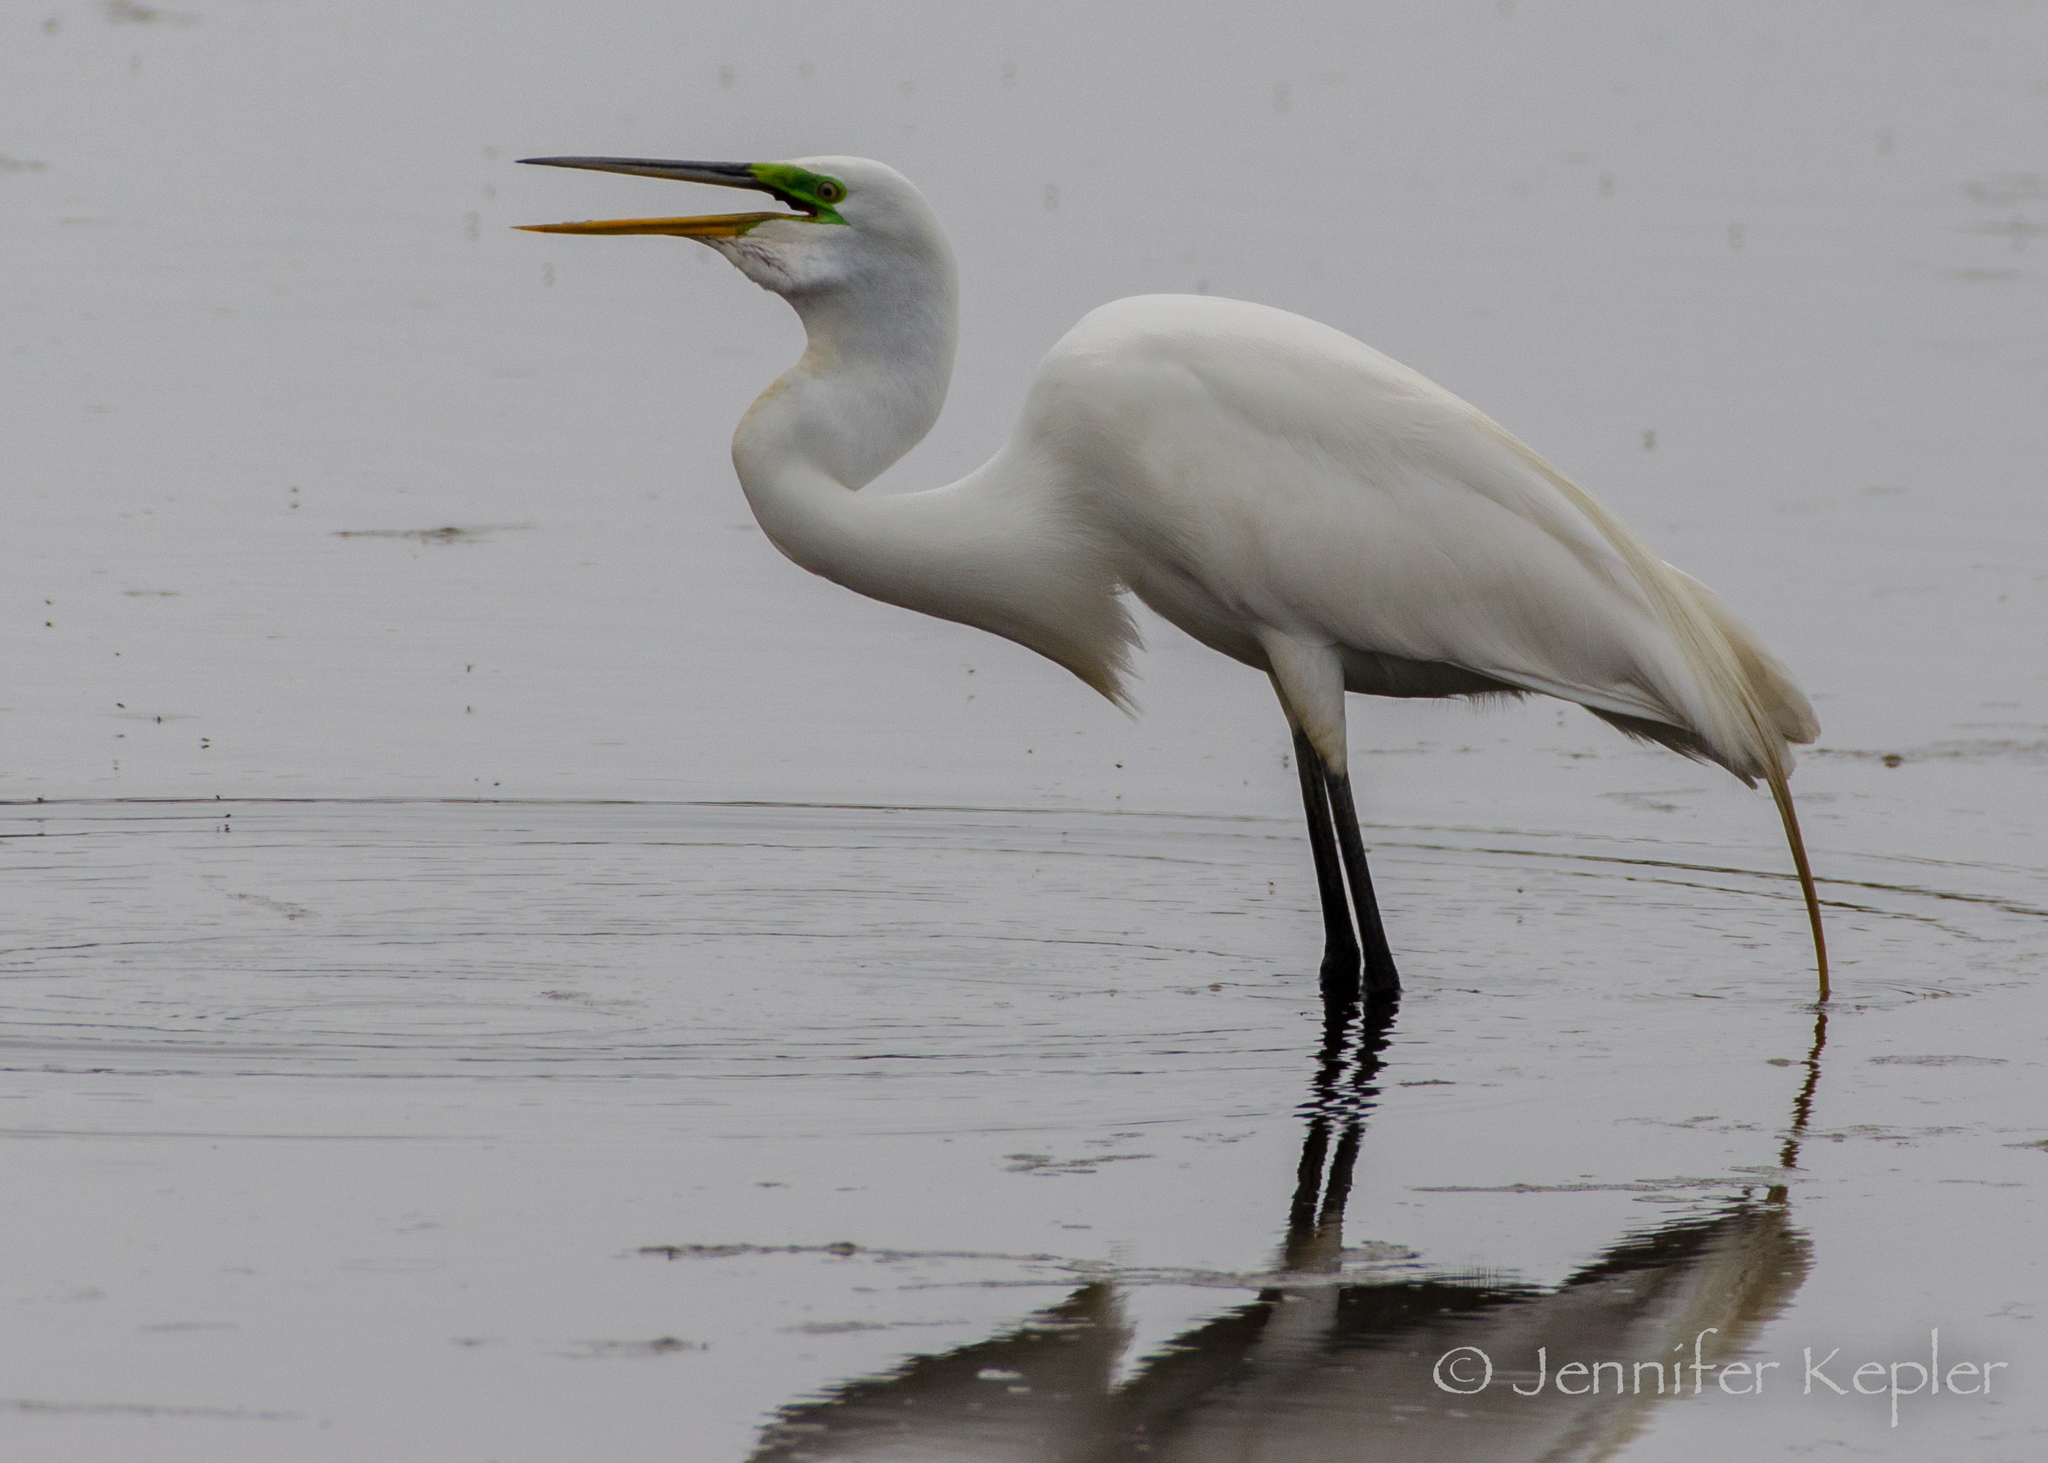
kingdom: Animalia
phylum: Chordata
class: Aves
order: Pelecaniformes
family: Ardeidae
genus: Ardea
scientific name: Ardea alba
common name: Great egret
